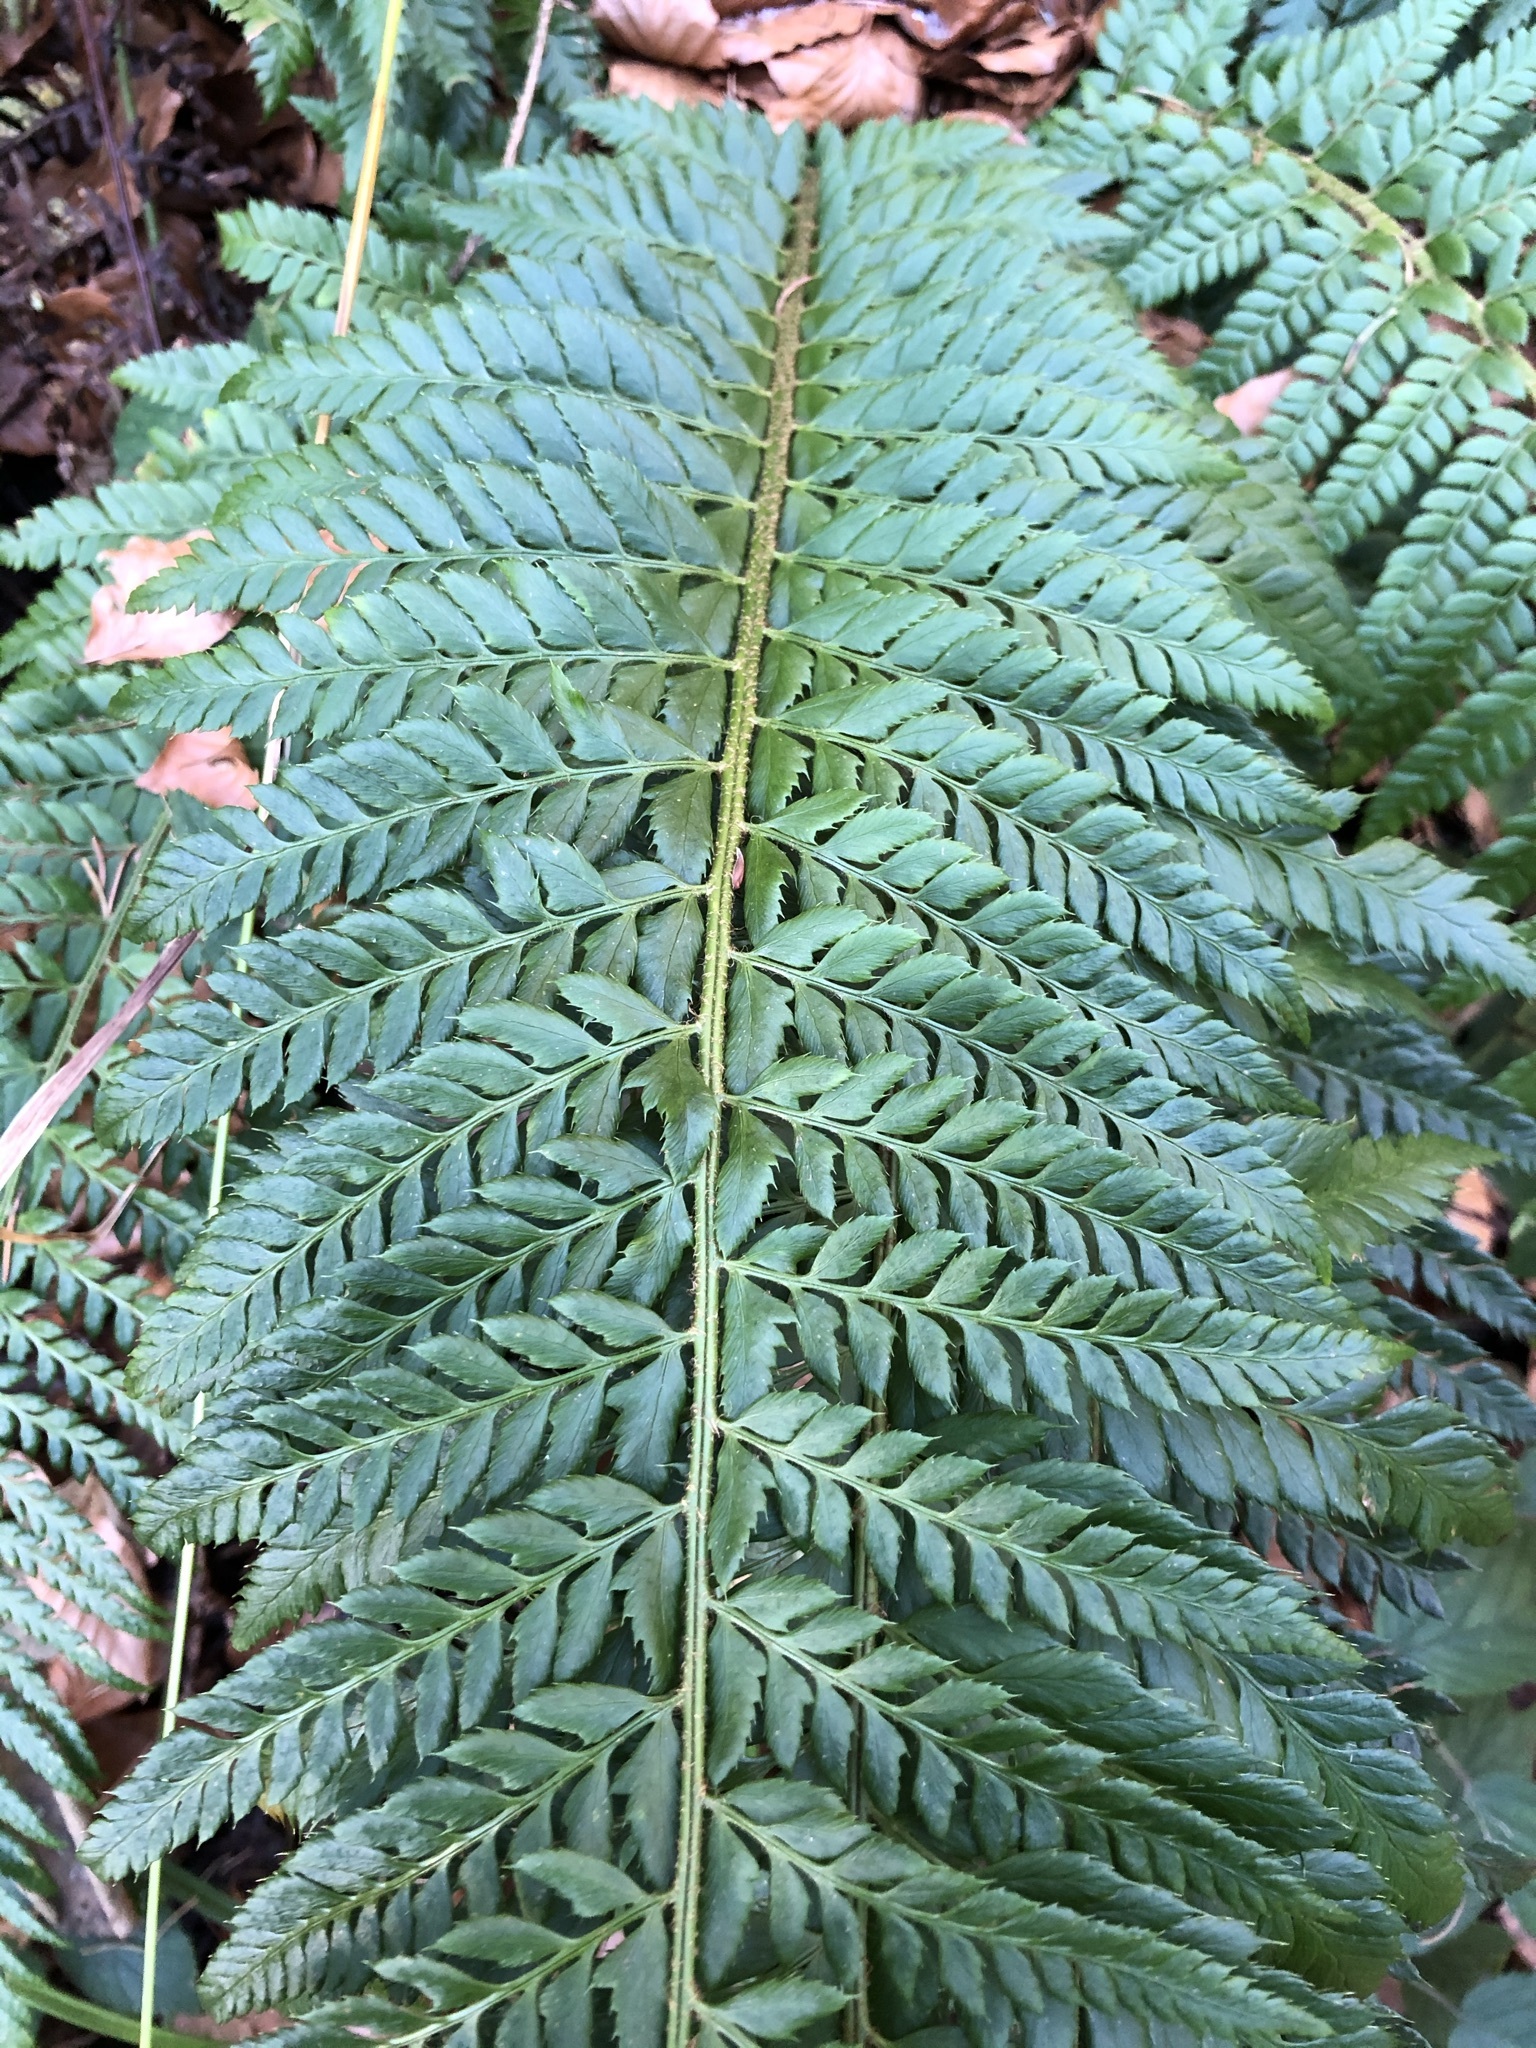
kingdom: Plantae
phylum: Tracheophyta
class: Polypodiopsida
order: Polypodiales
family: Dryopteridaceae
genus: Polystichum
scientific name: Polystichum aculeatum
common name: Hard shield-fern
